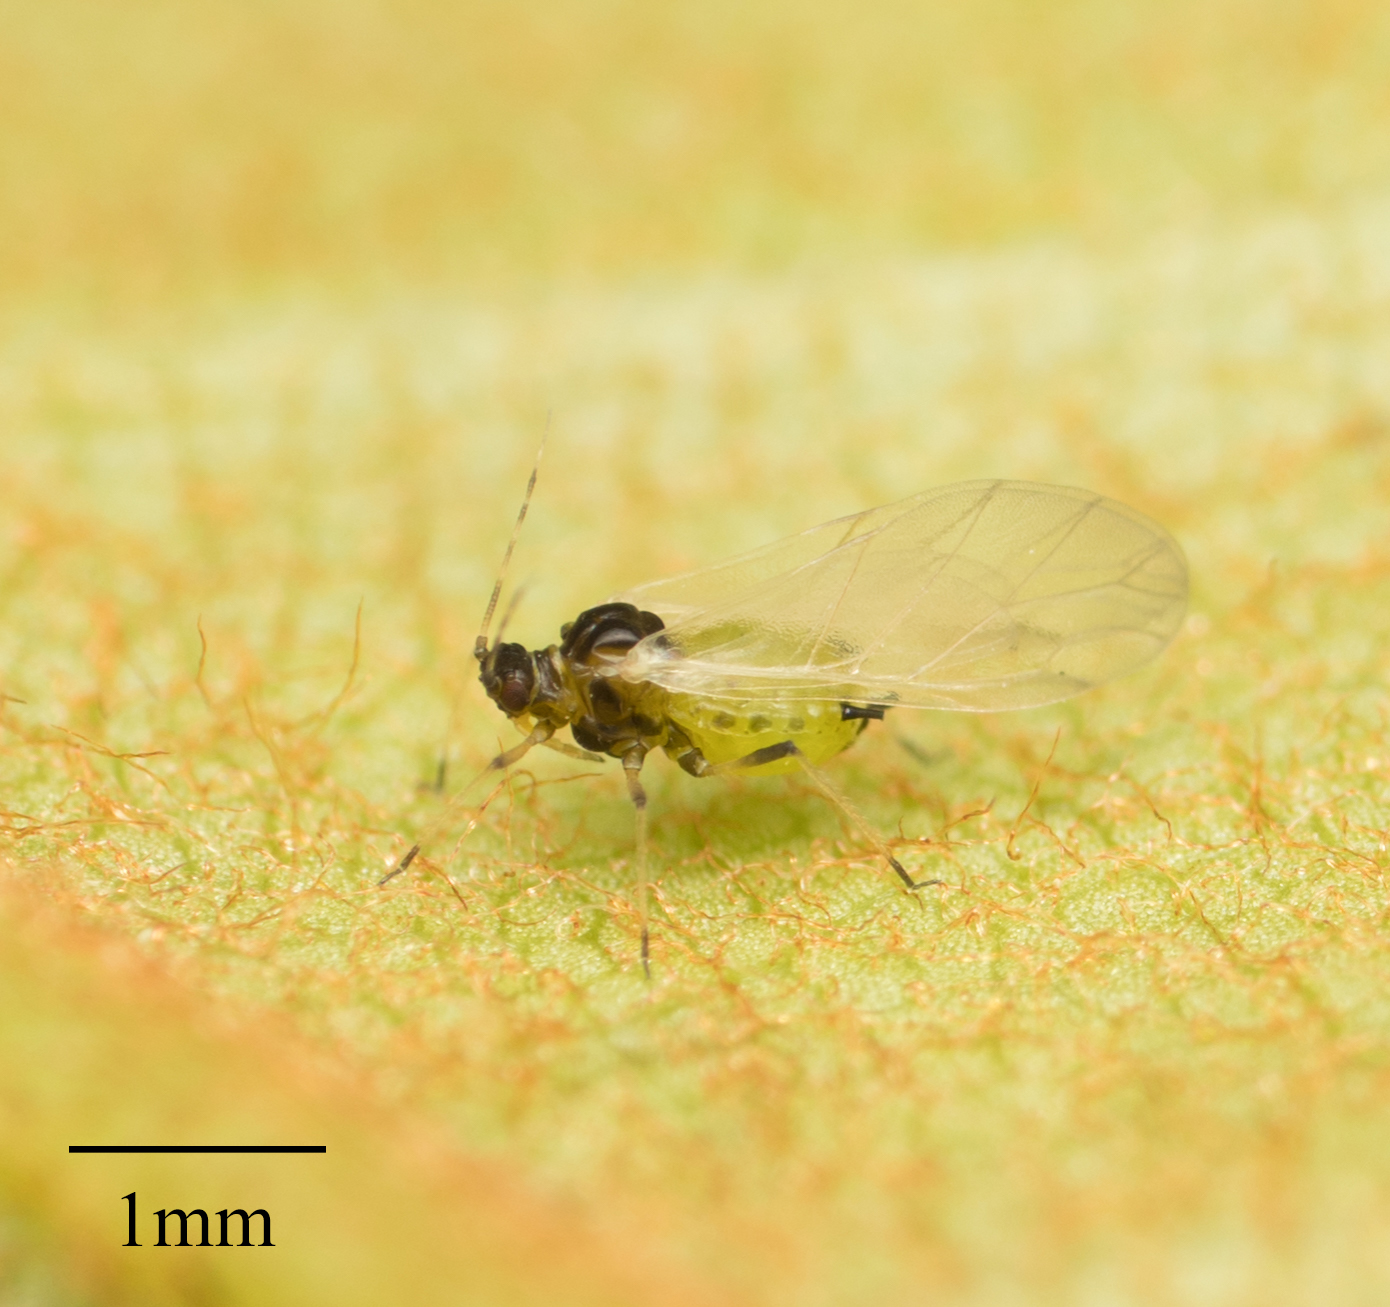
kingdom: Animalia
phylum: Arthropoda
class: Insecta
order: Hemiptera
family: Aphididae
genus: Aphis
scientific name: Aphis spiraecola
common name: Spirea aphid
